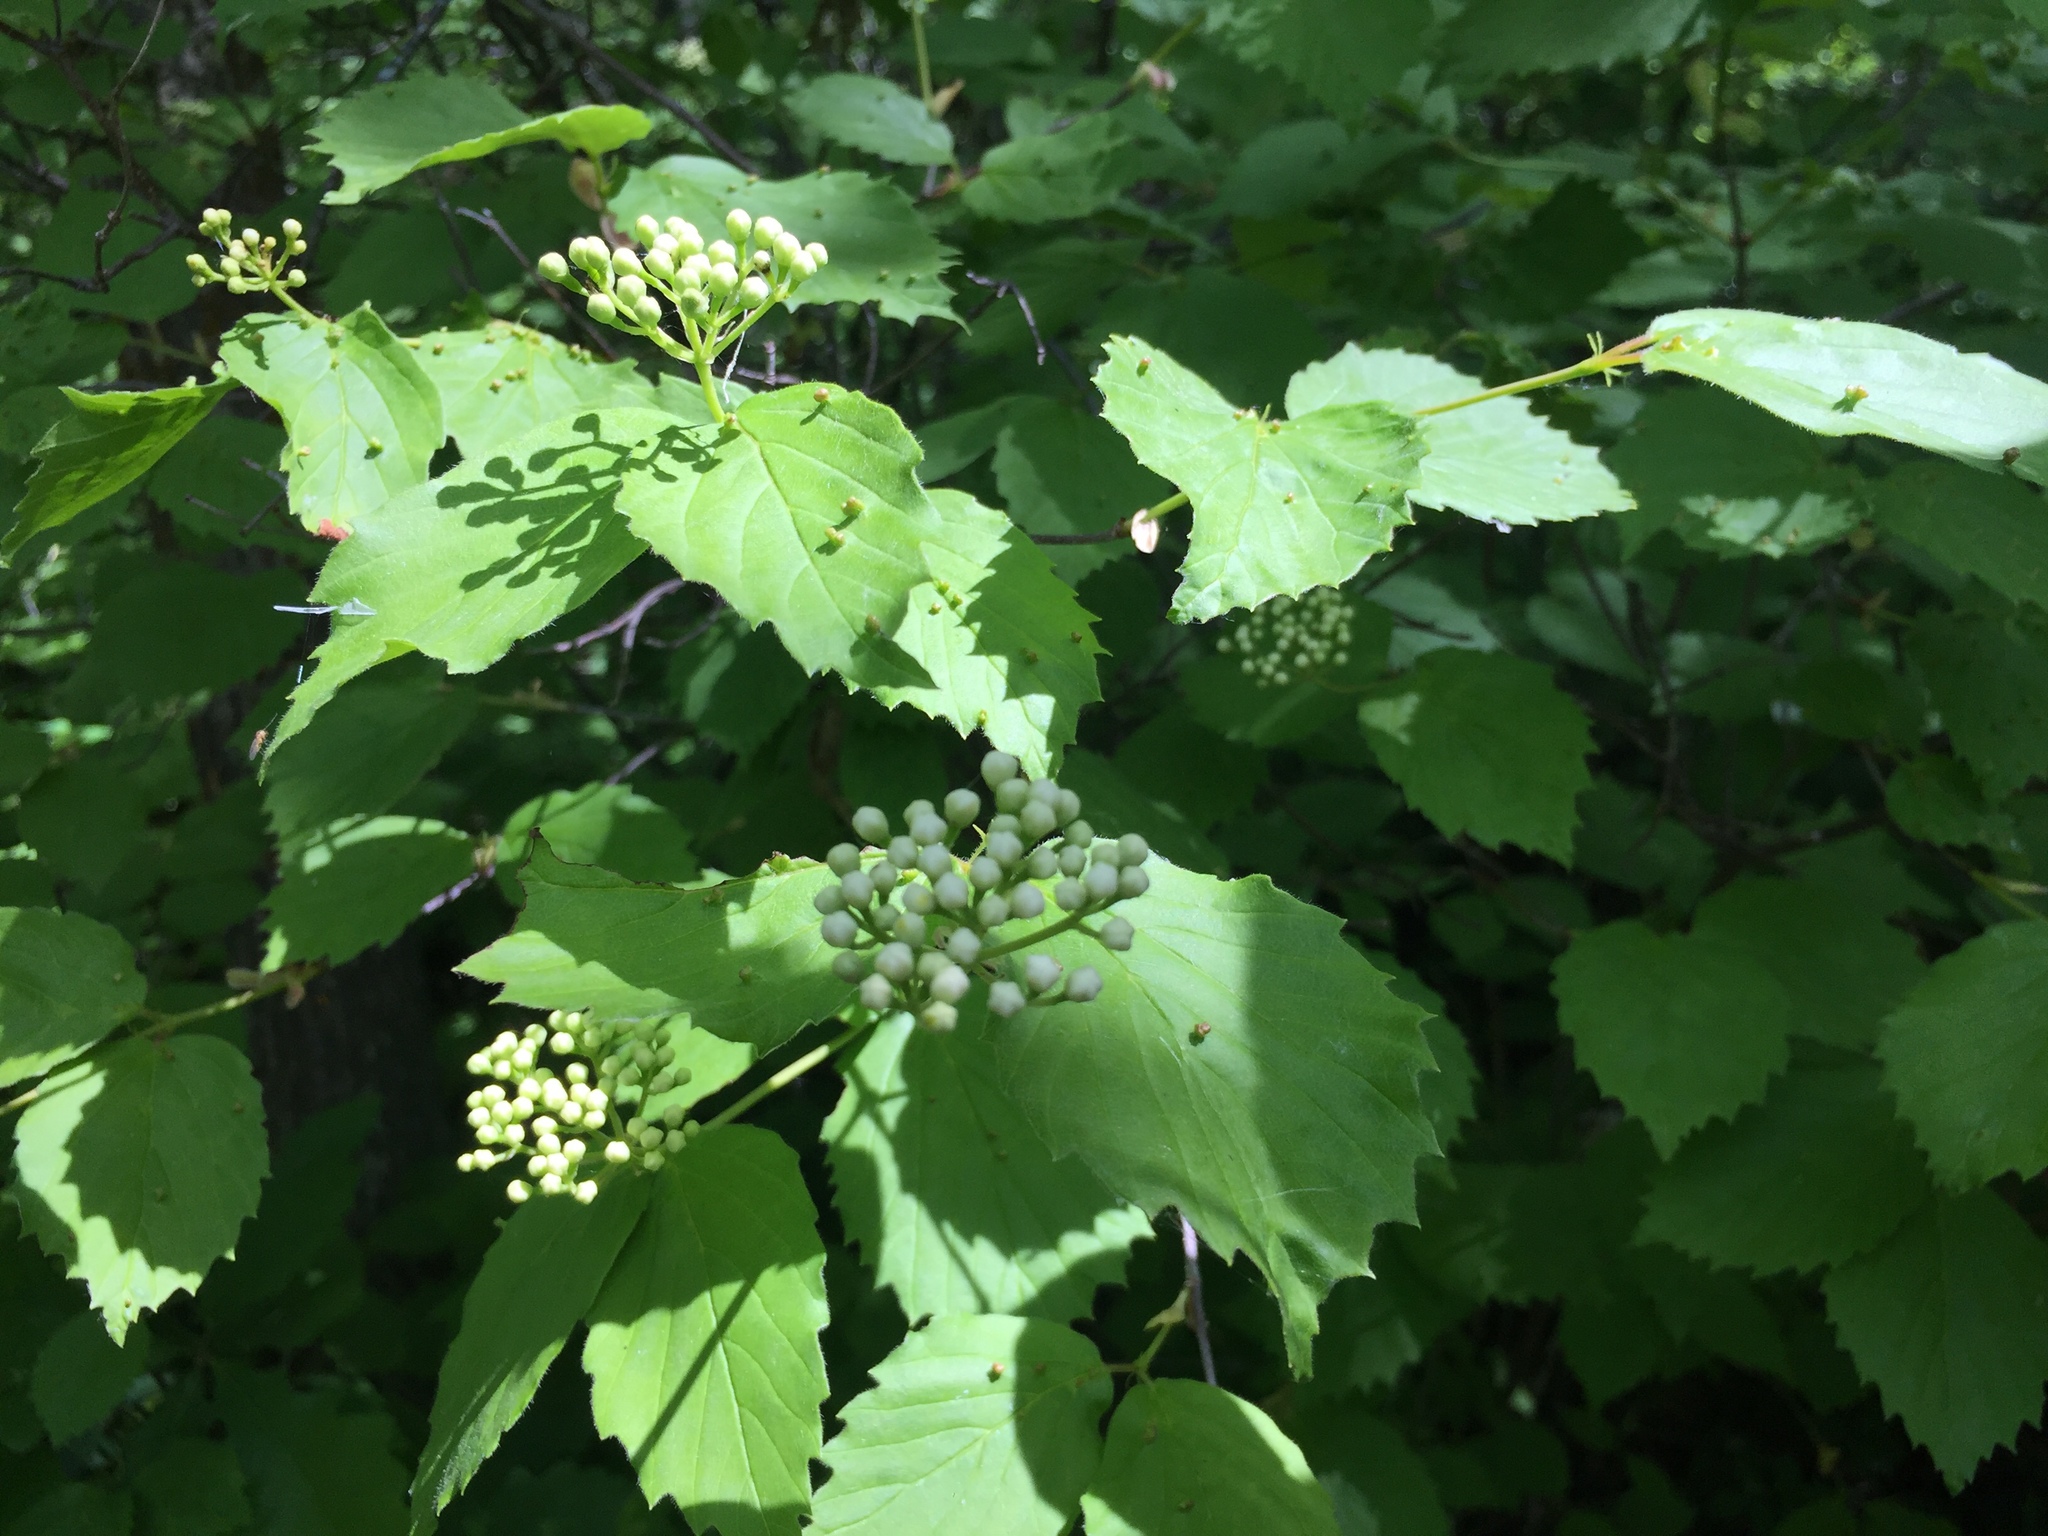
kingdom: Plantae
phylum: Tracheophyta
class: Magnoliopsida
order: Dipsacales
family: Viburnaceae
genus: Viburnum
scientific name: Viburnum rafinesqueanum
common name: Downy arrow-wood
